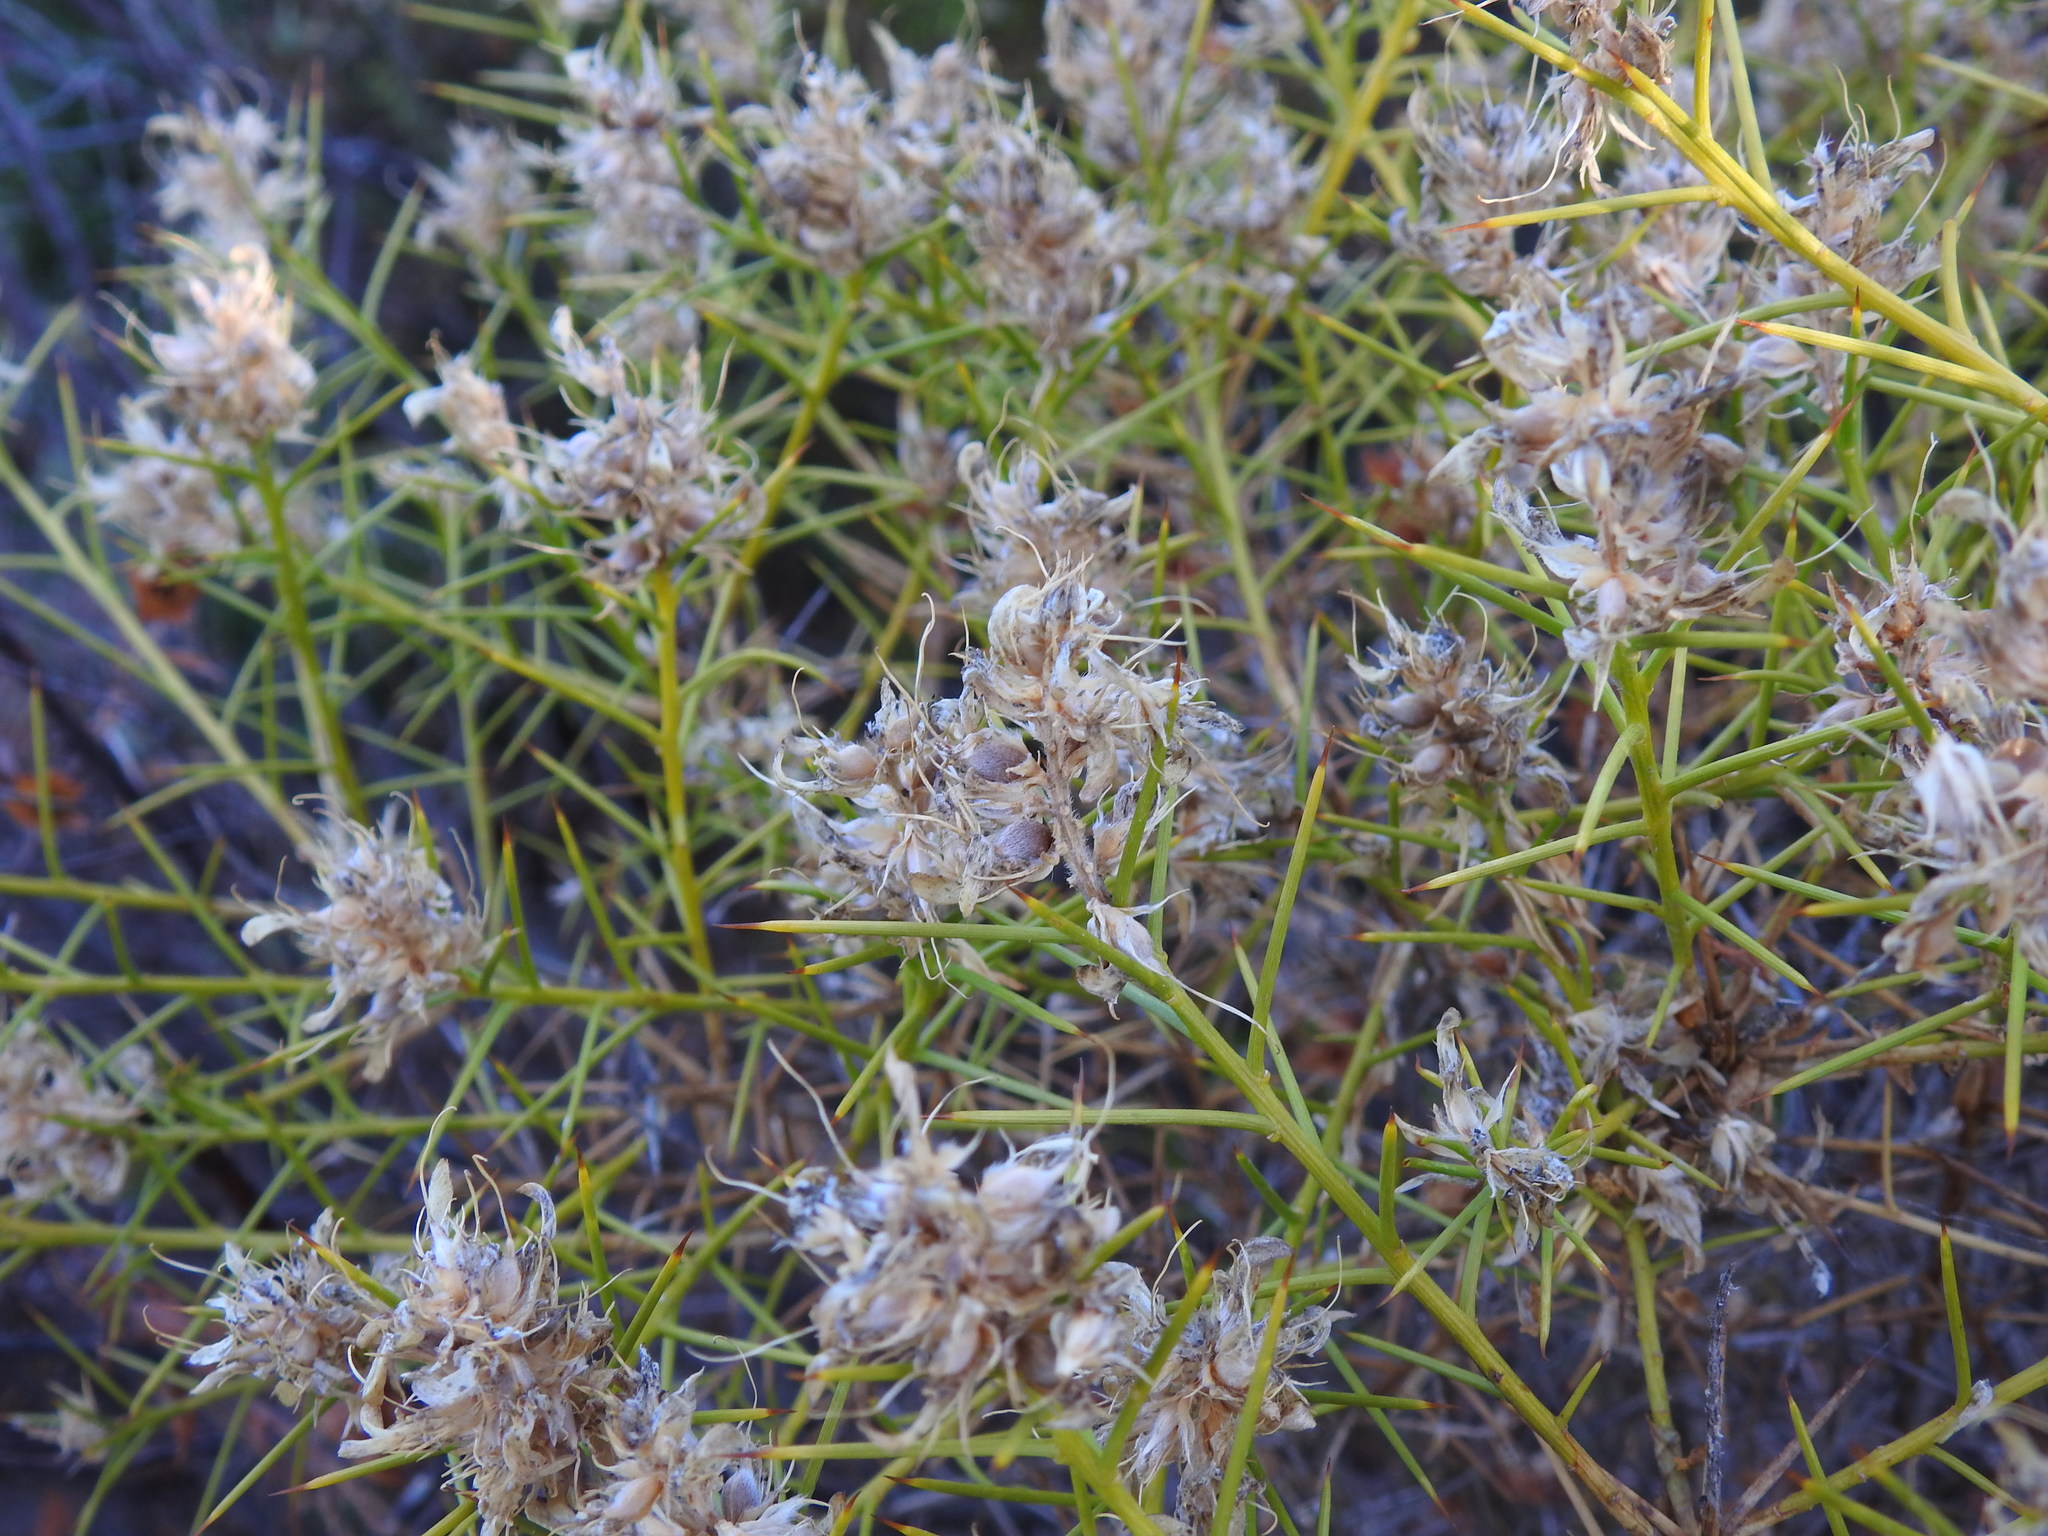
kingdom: Plantae
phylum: Tracheophyta
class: Magnoliopsida
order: Fabales
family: Fabaceae
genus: Genista
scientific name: Genista hirsuta
